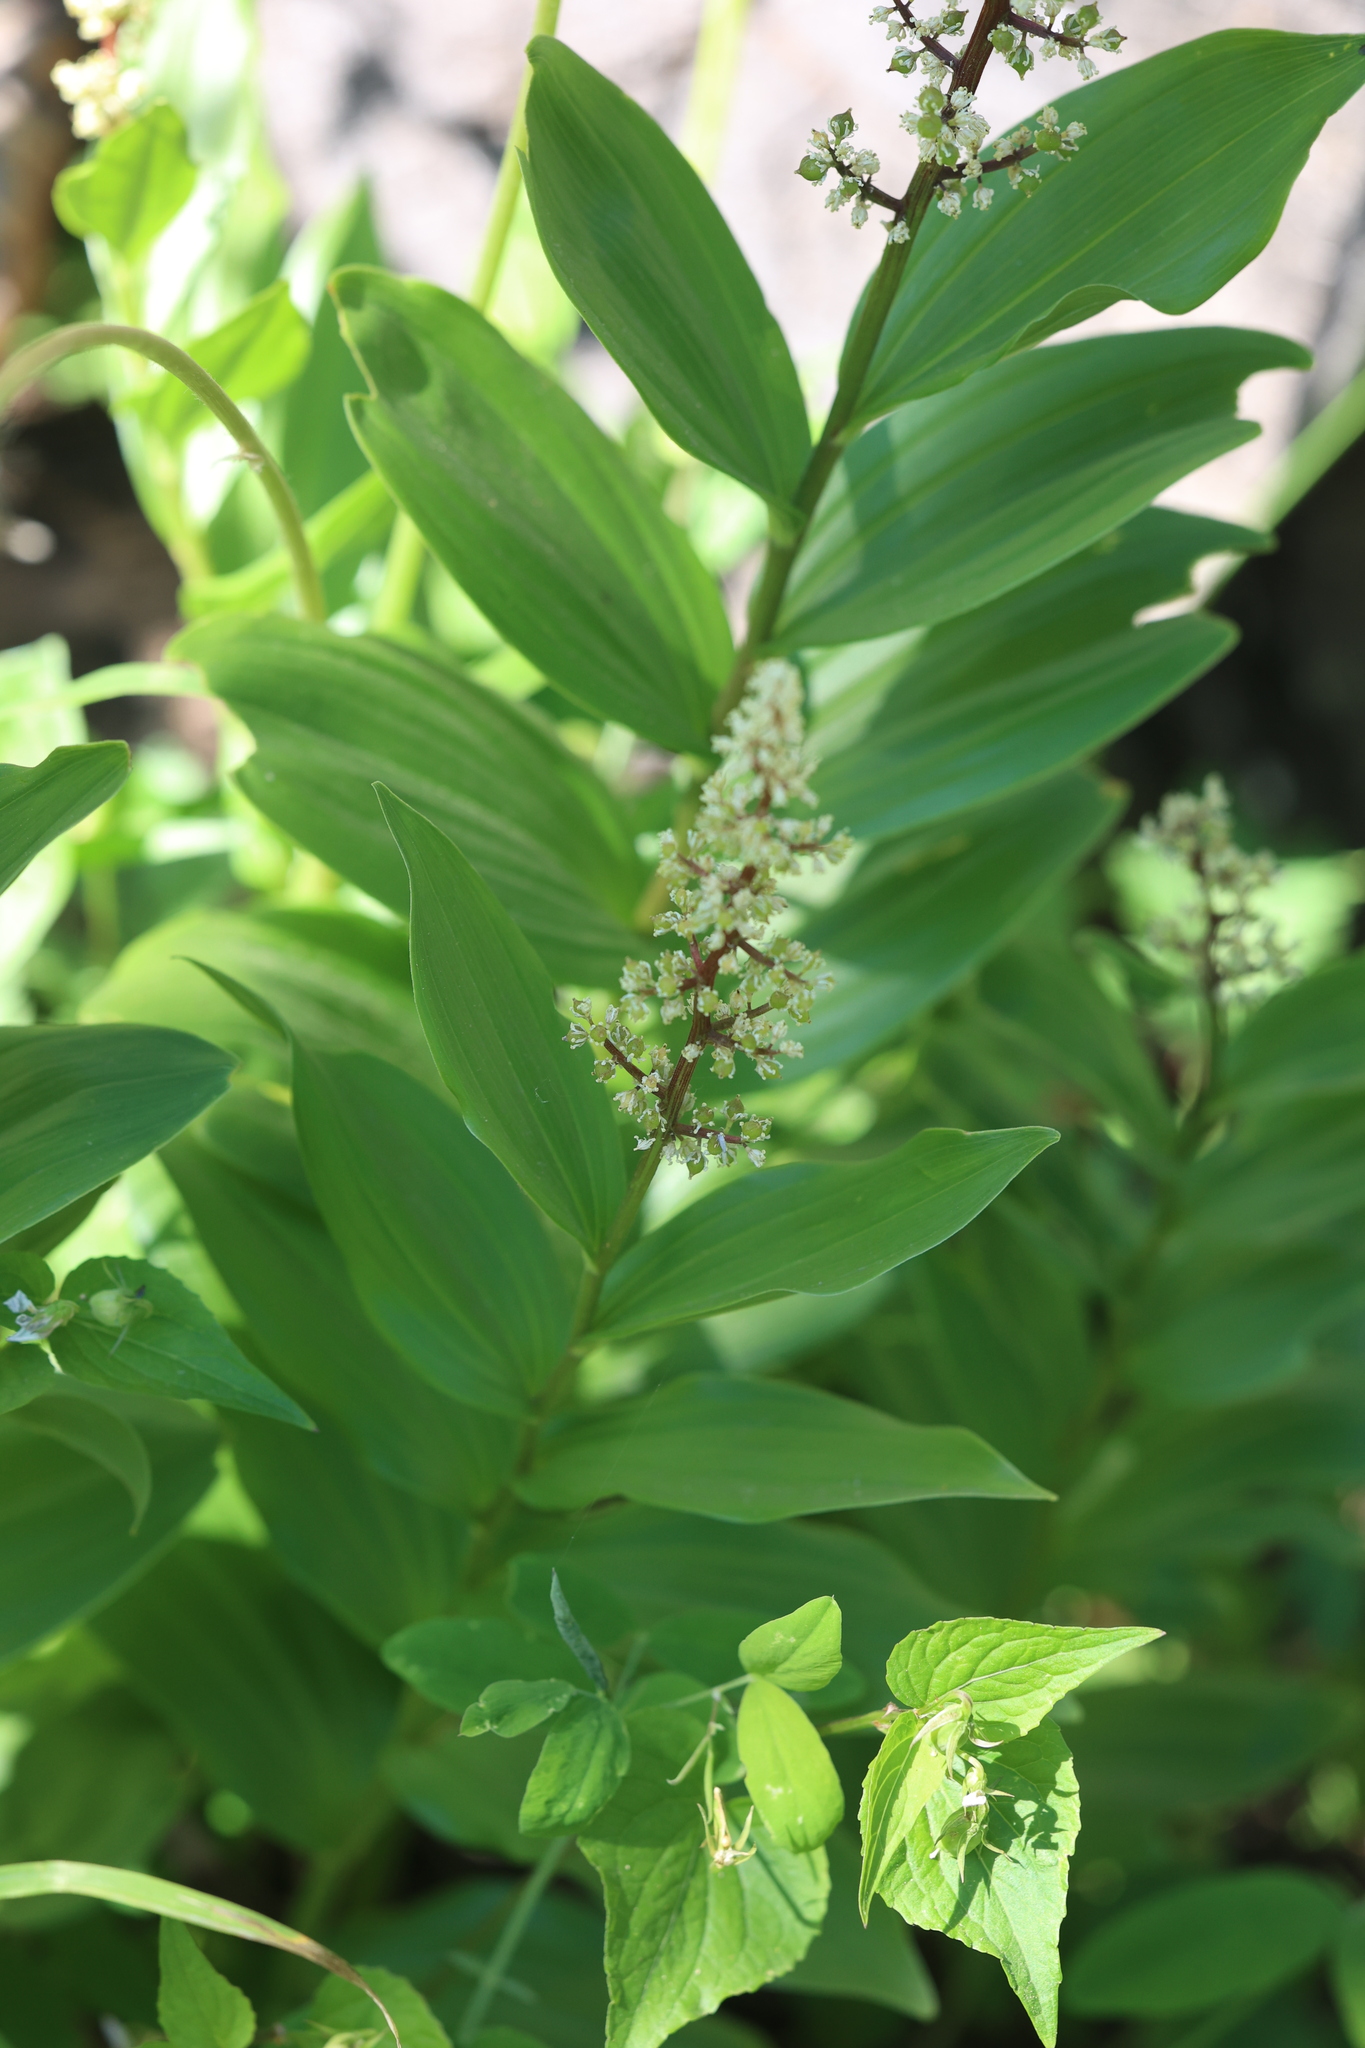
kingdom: Plantae
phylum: Tracheophyta
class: Liliopsida
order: Asparagales
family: Asparagaceae
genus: Maianthemum
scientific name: Maianthemum racemosum
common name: False spikenard
